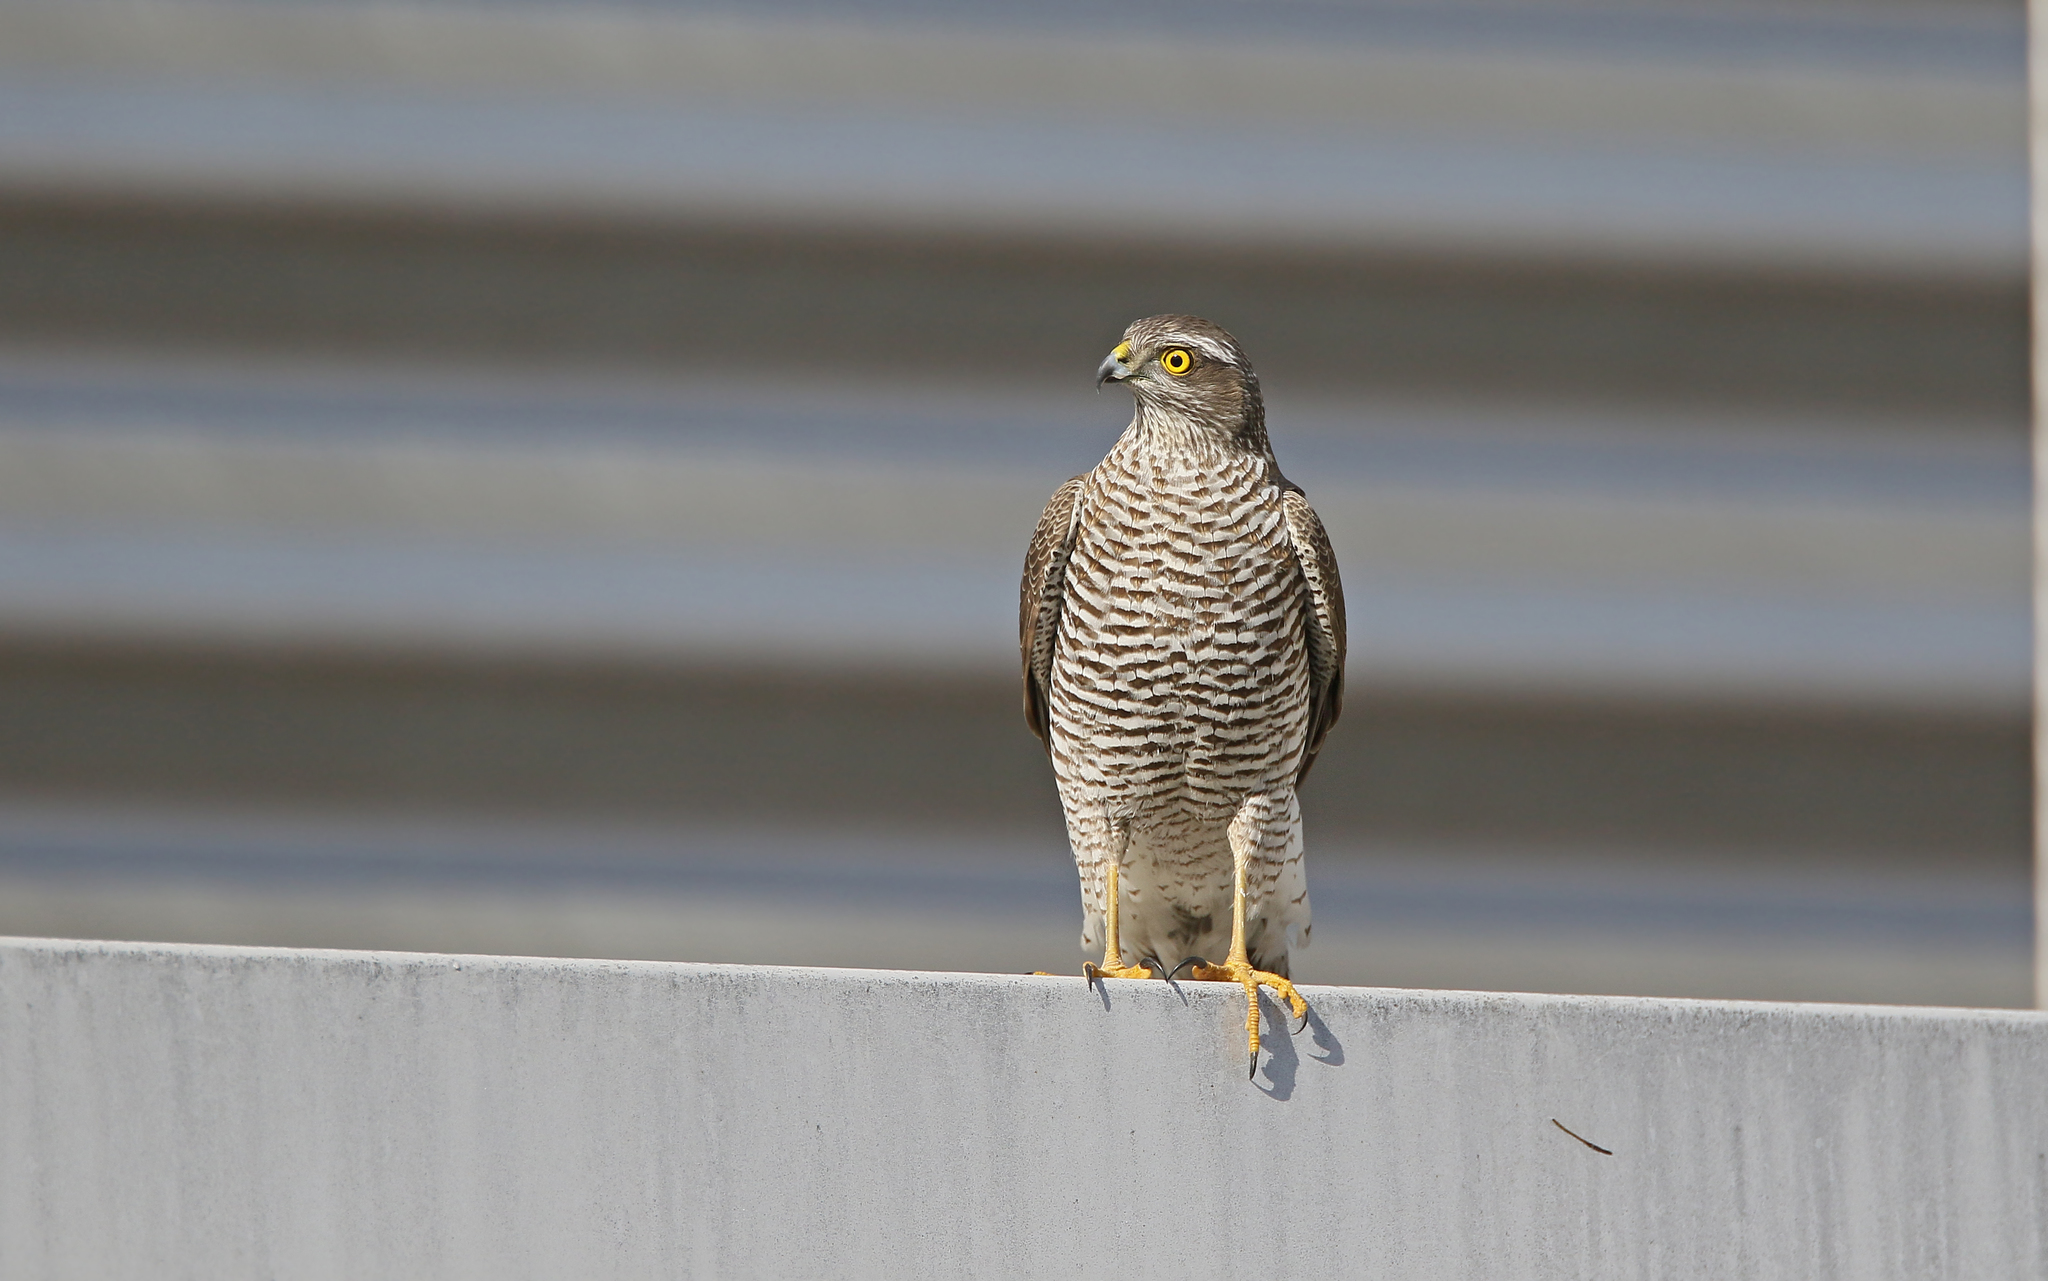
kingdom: Animalia
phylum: Chordata
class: Aves
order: Accipitriformes
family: Accipitridae
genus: Accipiter
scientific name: Accipiter nisus
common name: Eurasian sparrowhawk
